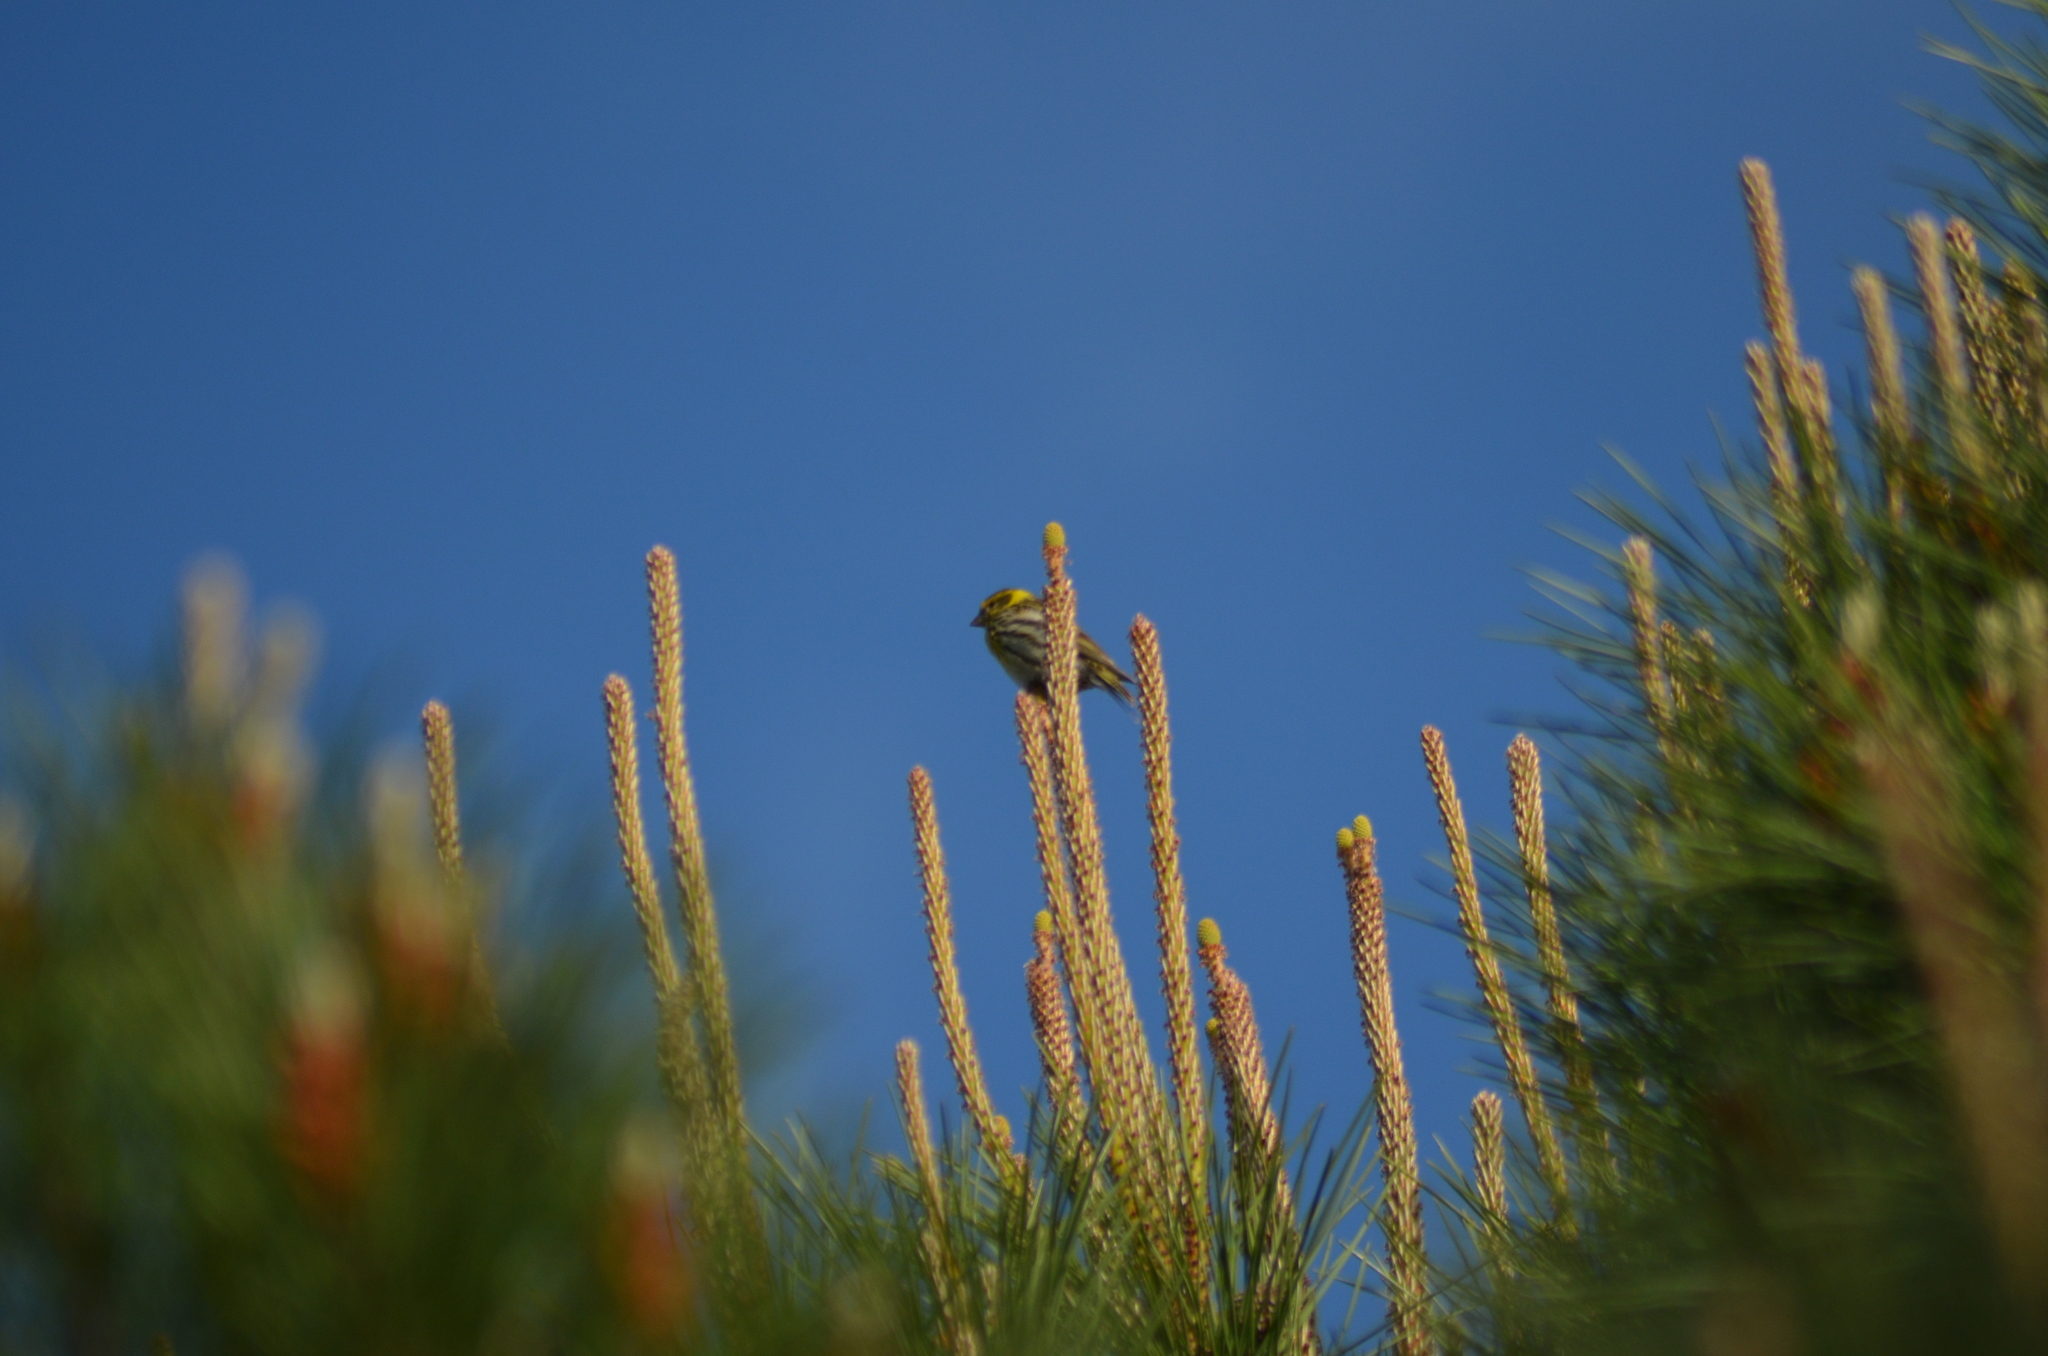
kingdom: Animalia
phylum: Chordata
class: Aves
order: Passeriformes
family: Fringillidae
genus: Serinus
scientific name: Serinus serinus
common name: European serin
